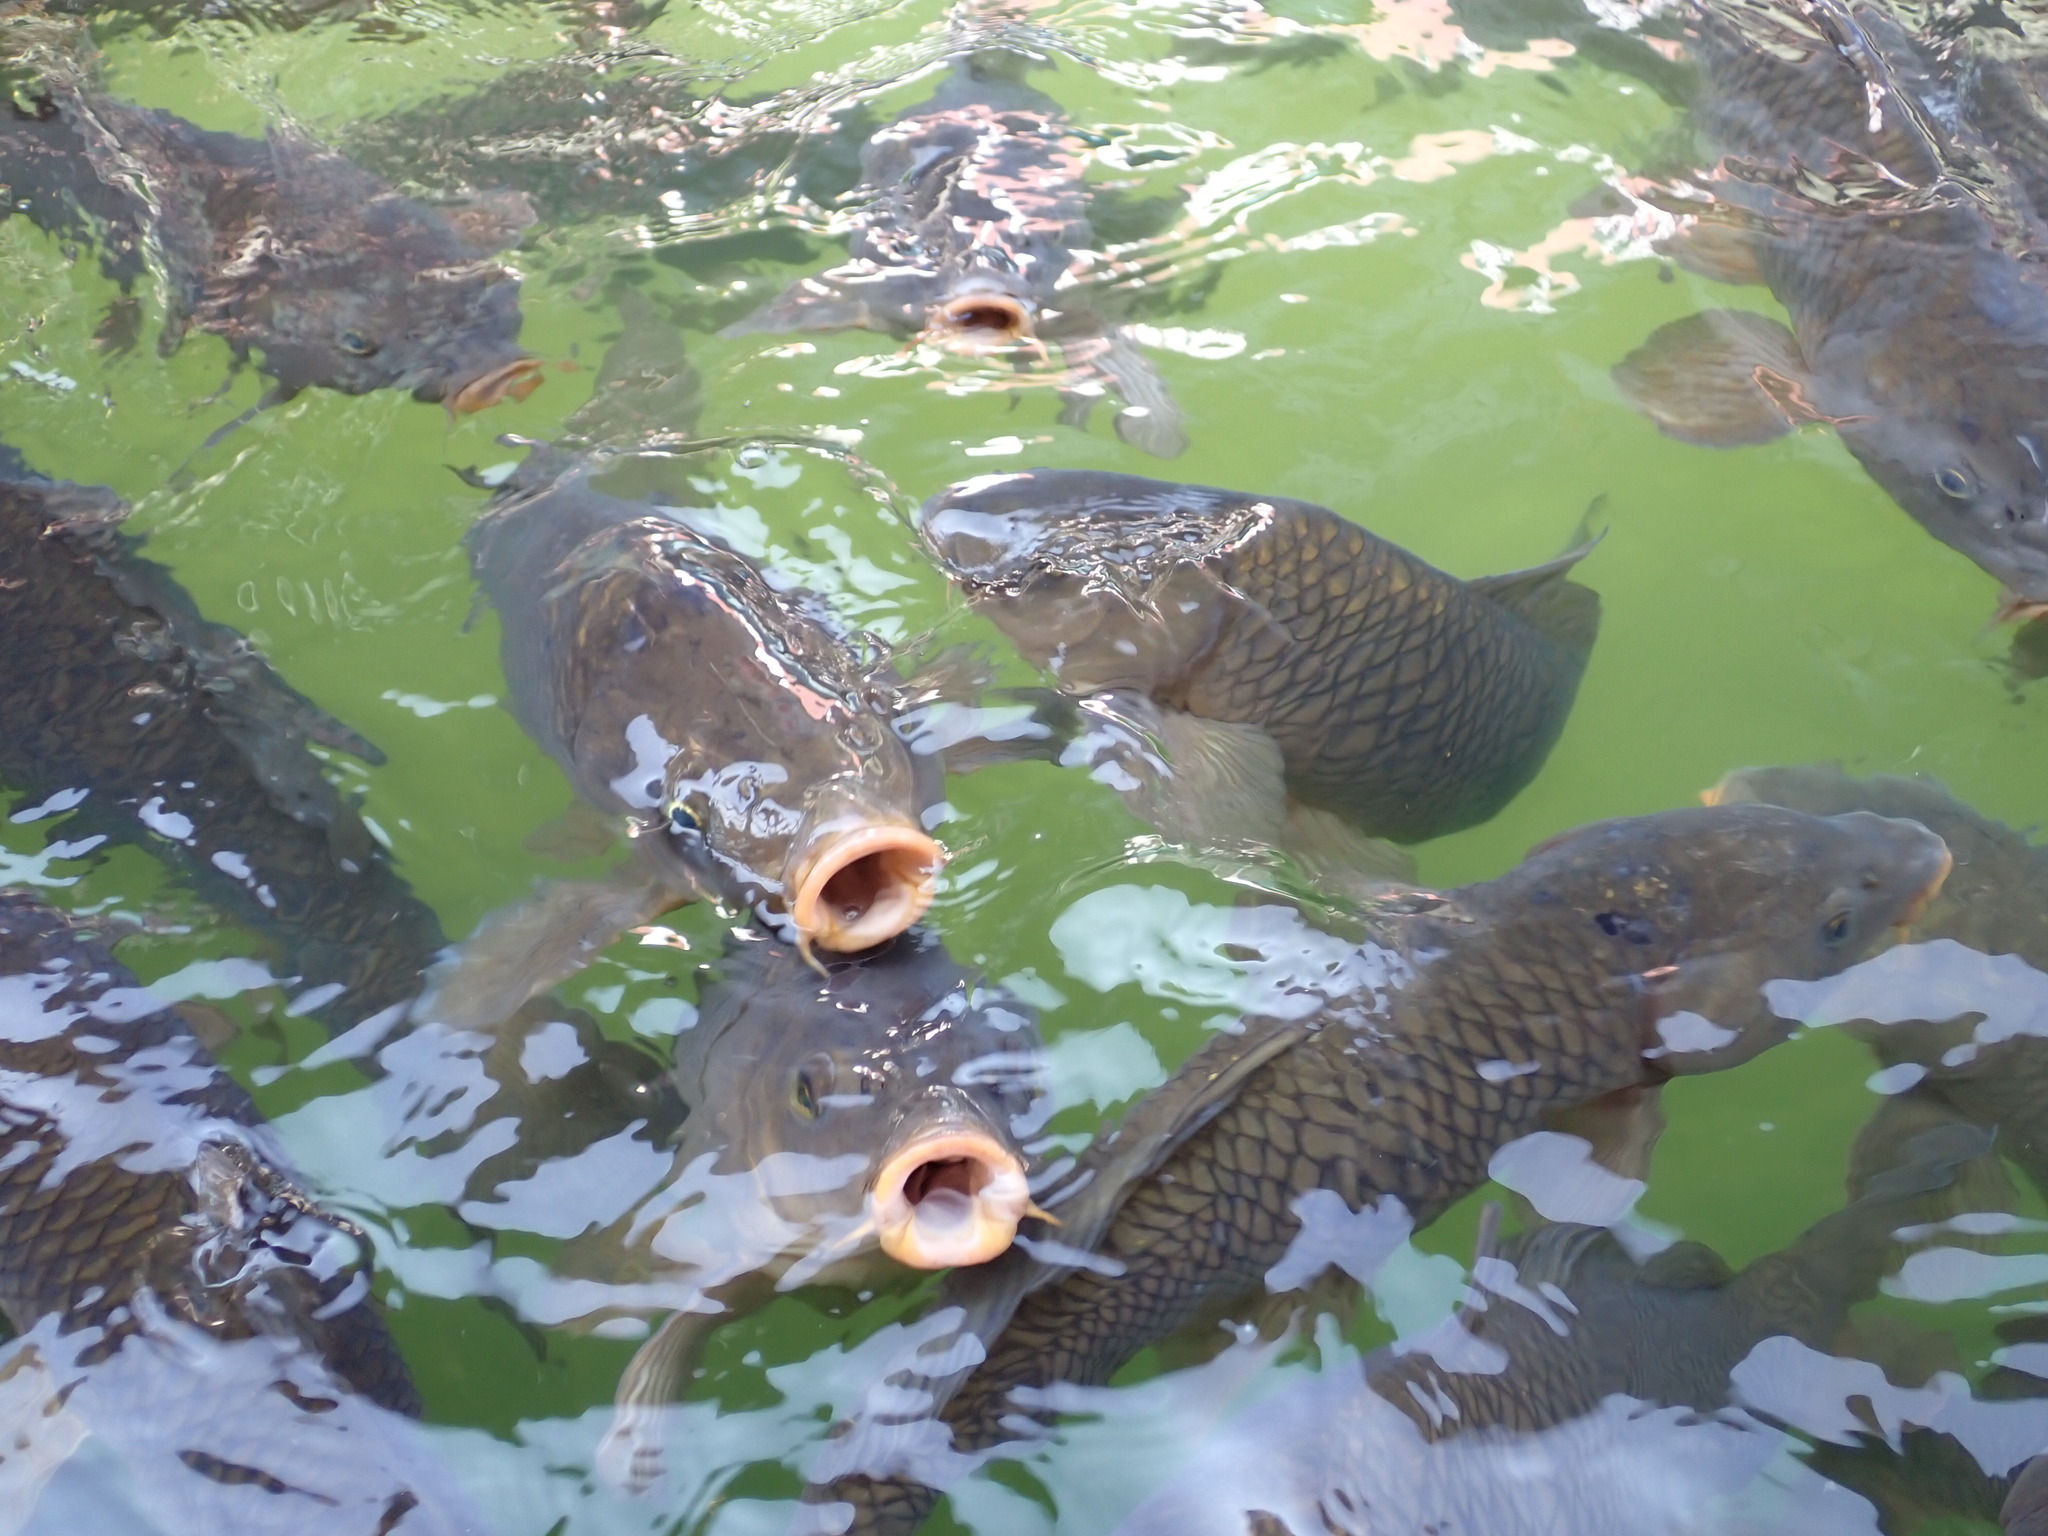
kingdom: Animalia
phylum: Chordata
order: Cypriniformes
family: Cyprinidae
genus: Cyprinus
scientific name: Cyprinus carpio
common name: Common carp
